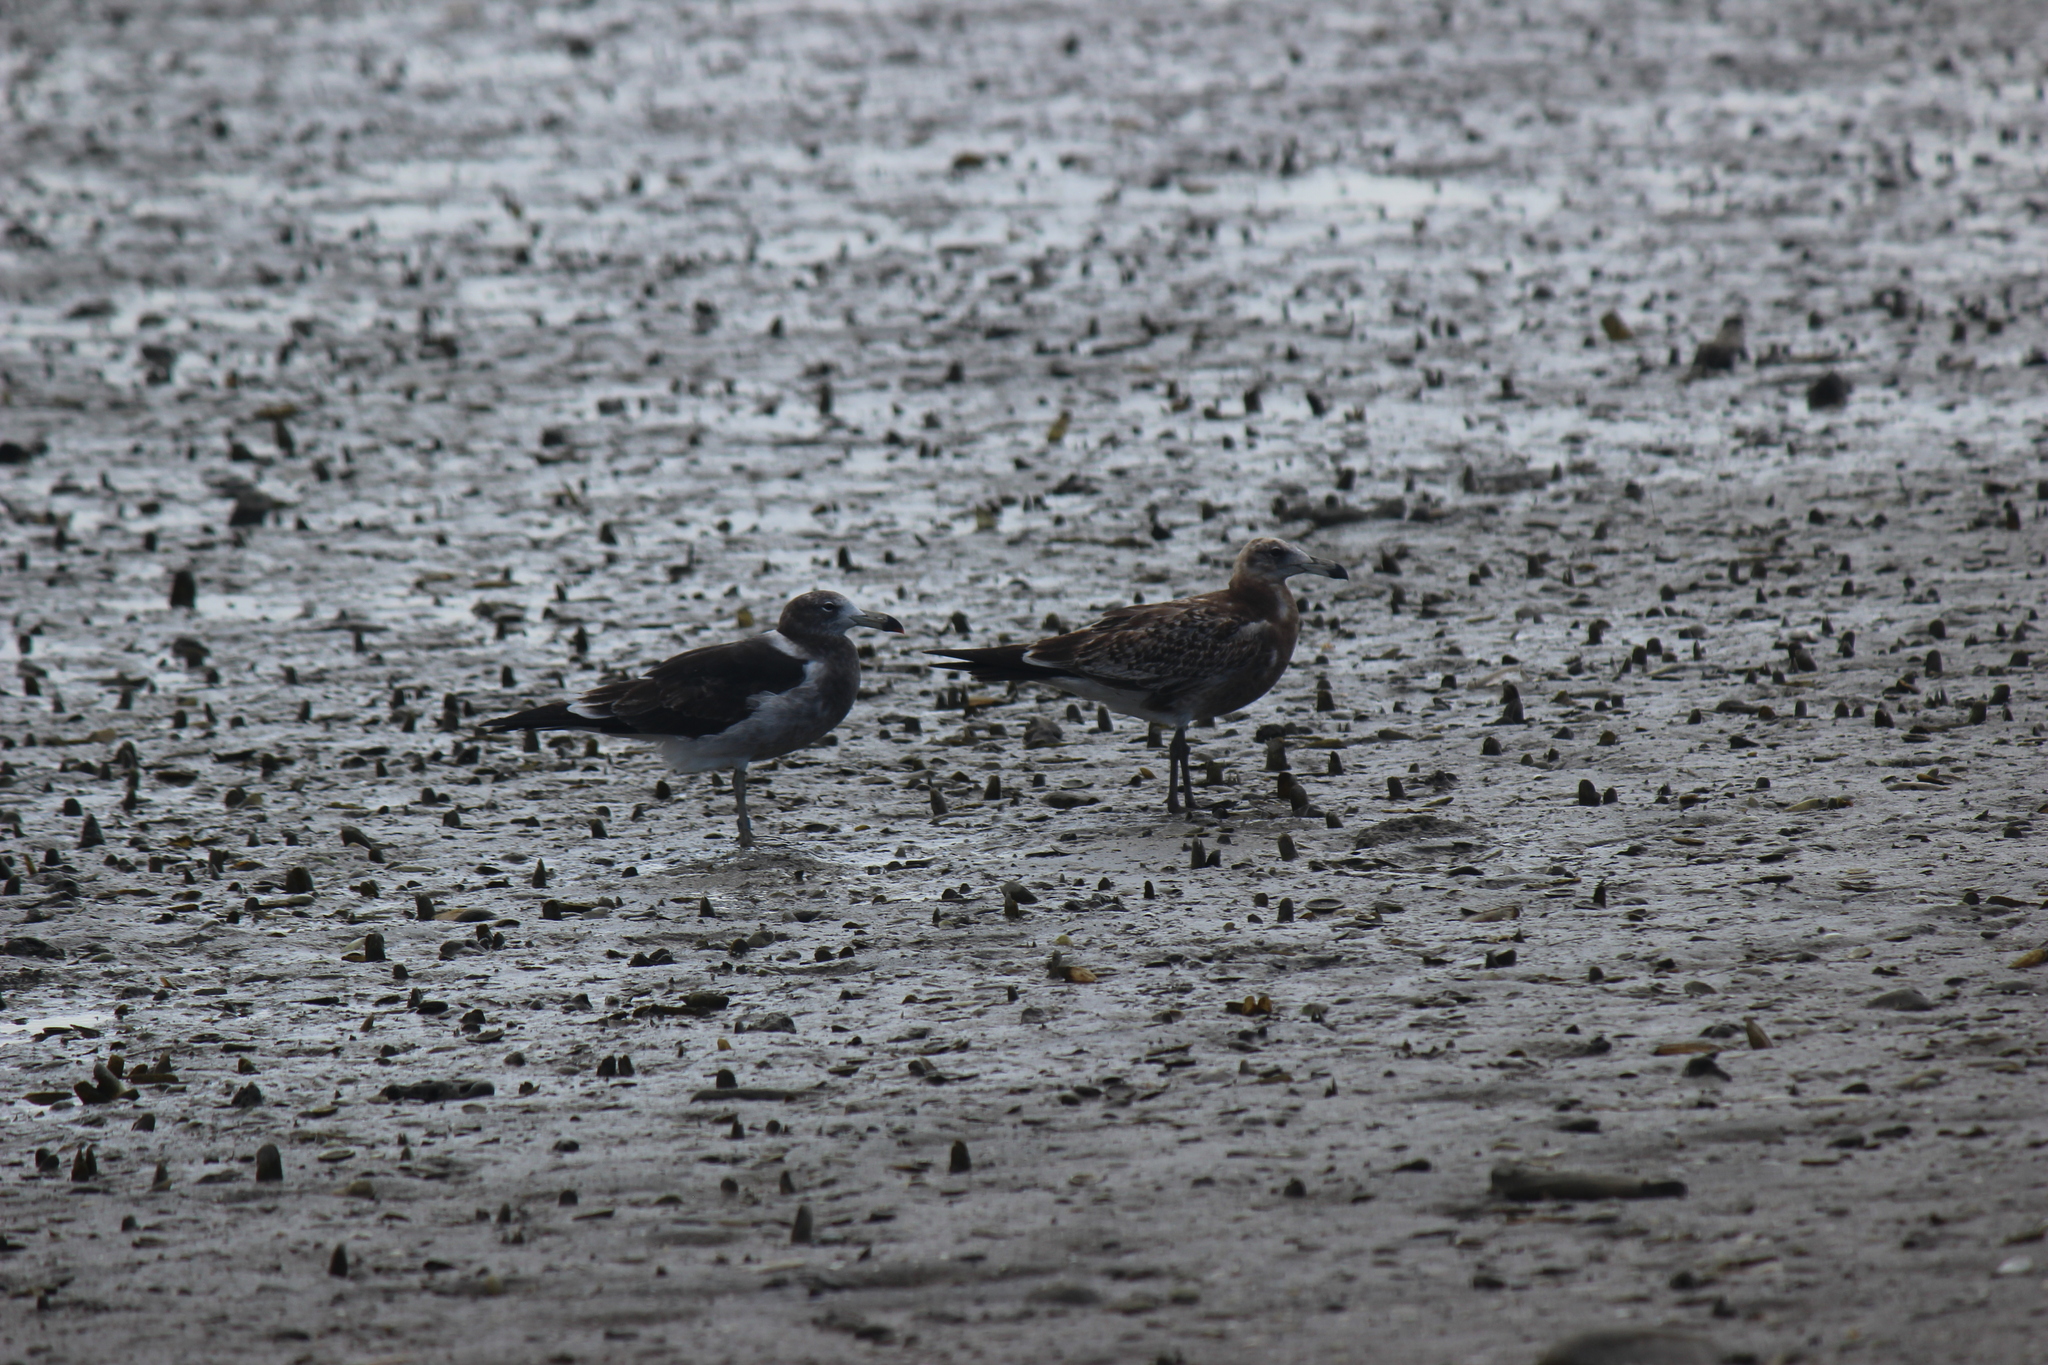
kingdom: Animalia
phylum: Chordata
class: Aves
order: Charadriiformes
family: Laridae
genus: Larus
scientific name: Larus atlanticus
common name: Olrog's gull
